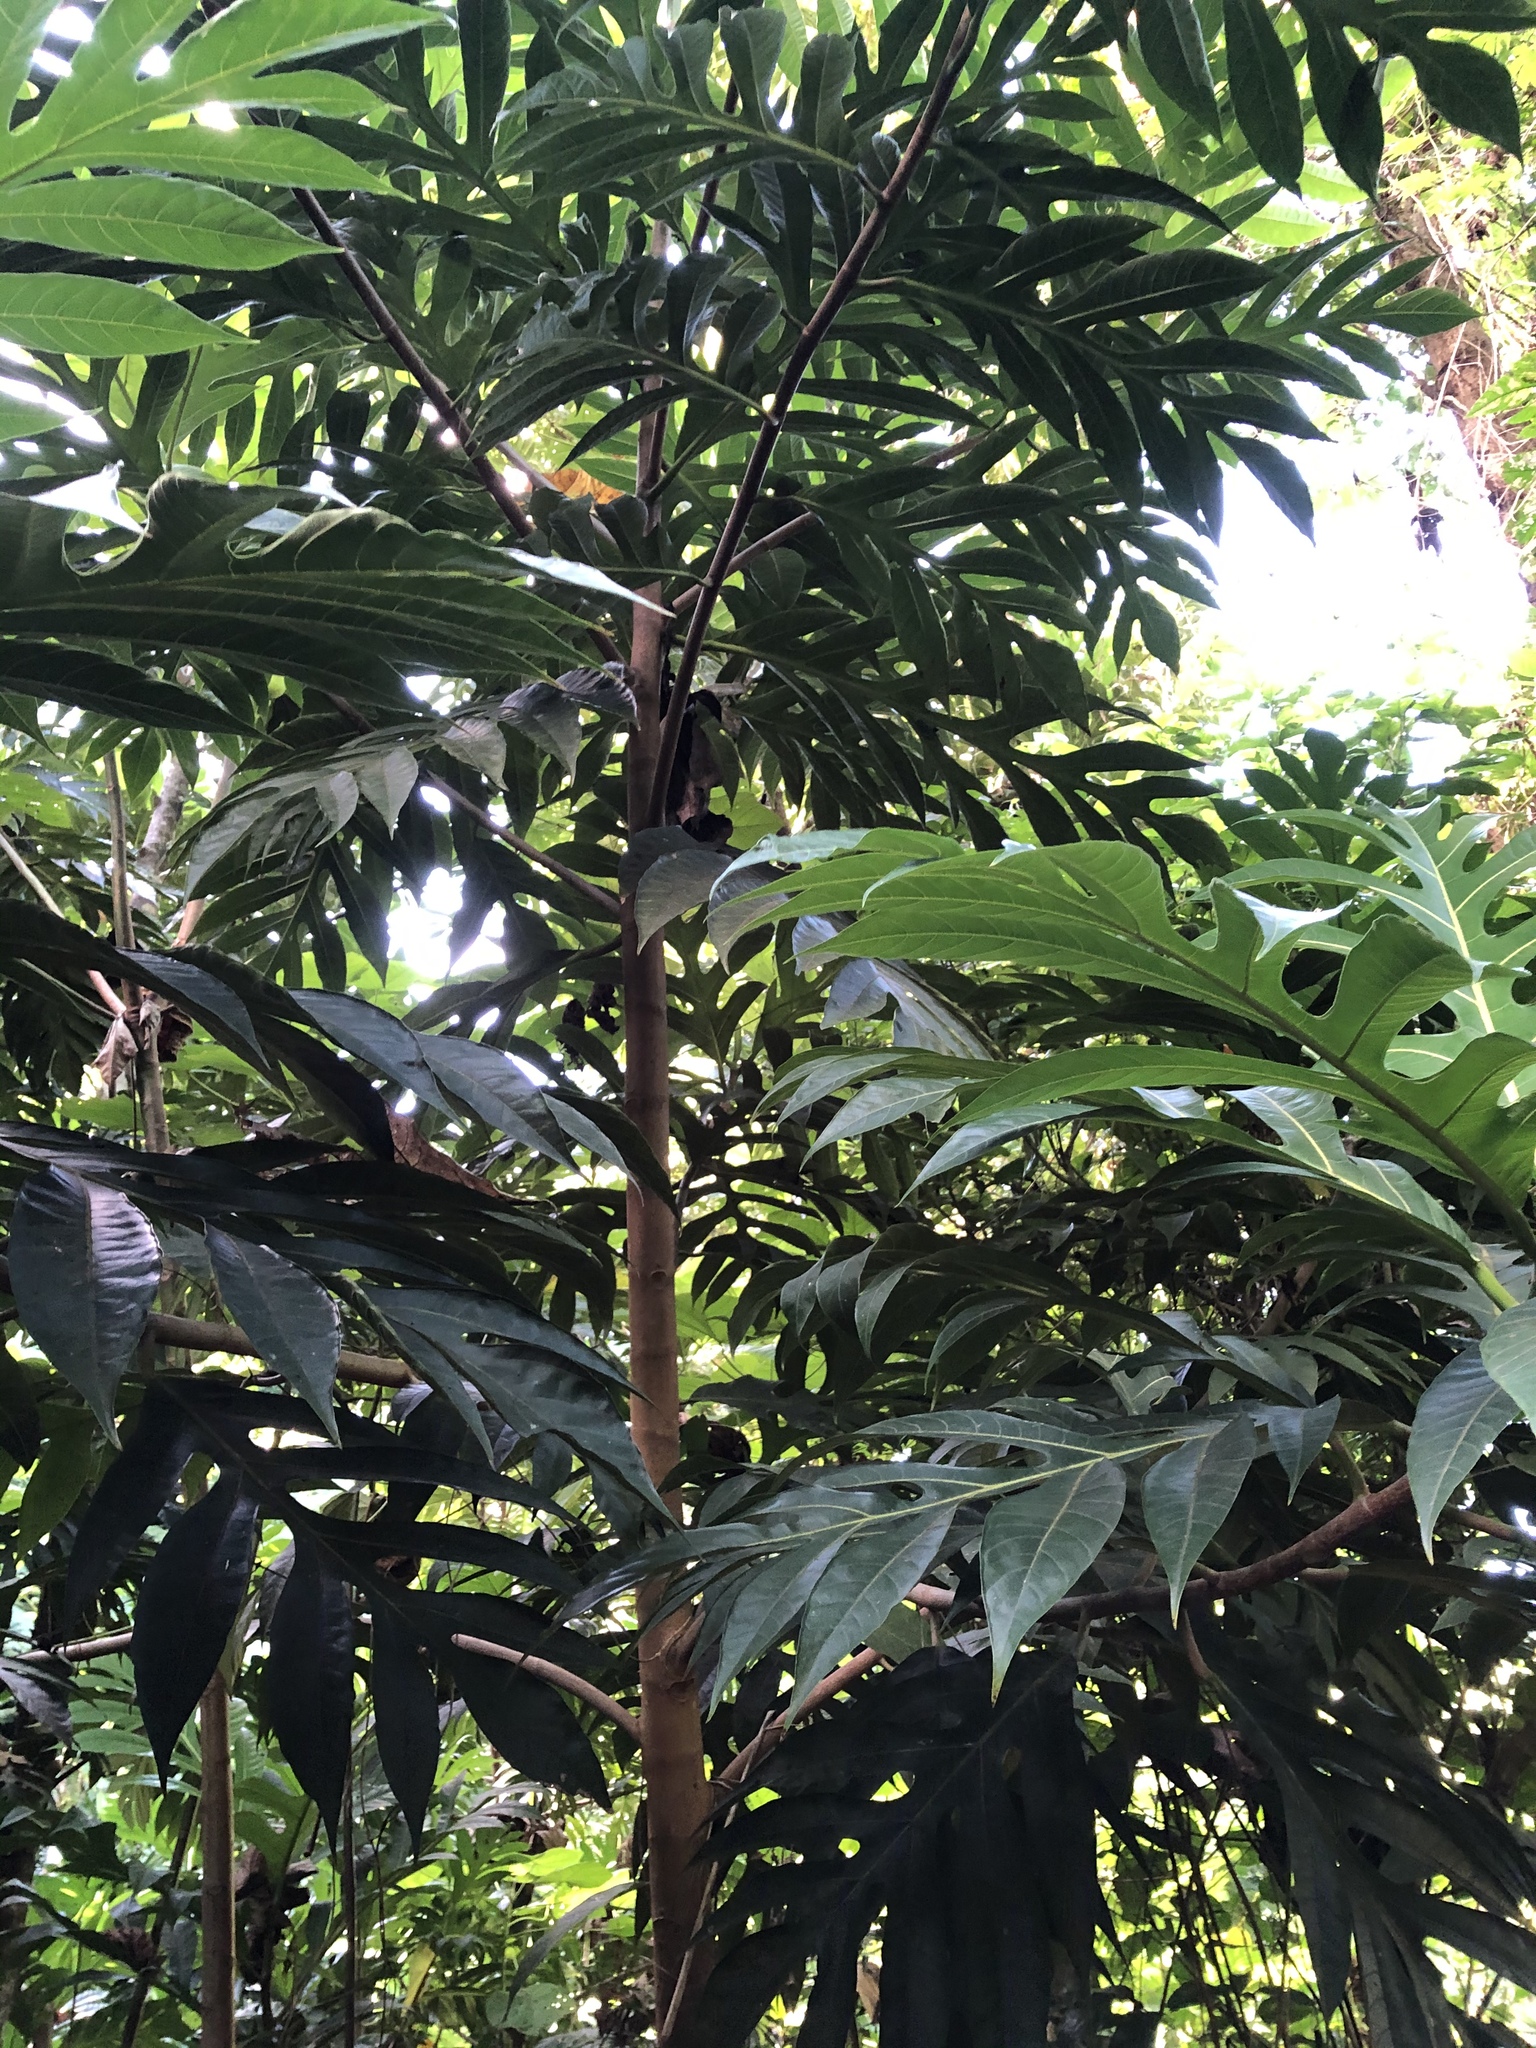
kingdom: Plantae
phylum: Tracheophyta
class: Magnoliopsida
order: Rosales
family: Moraceae
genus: Artocarpus
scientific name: Artocarpus altilis
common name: Breadfruit
